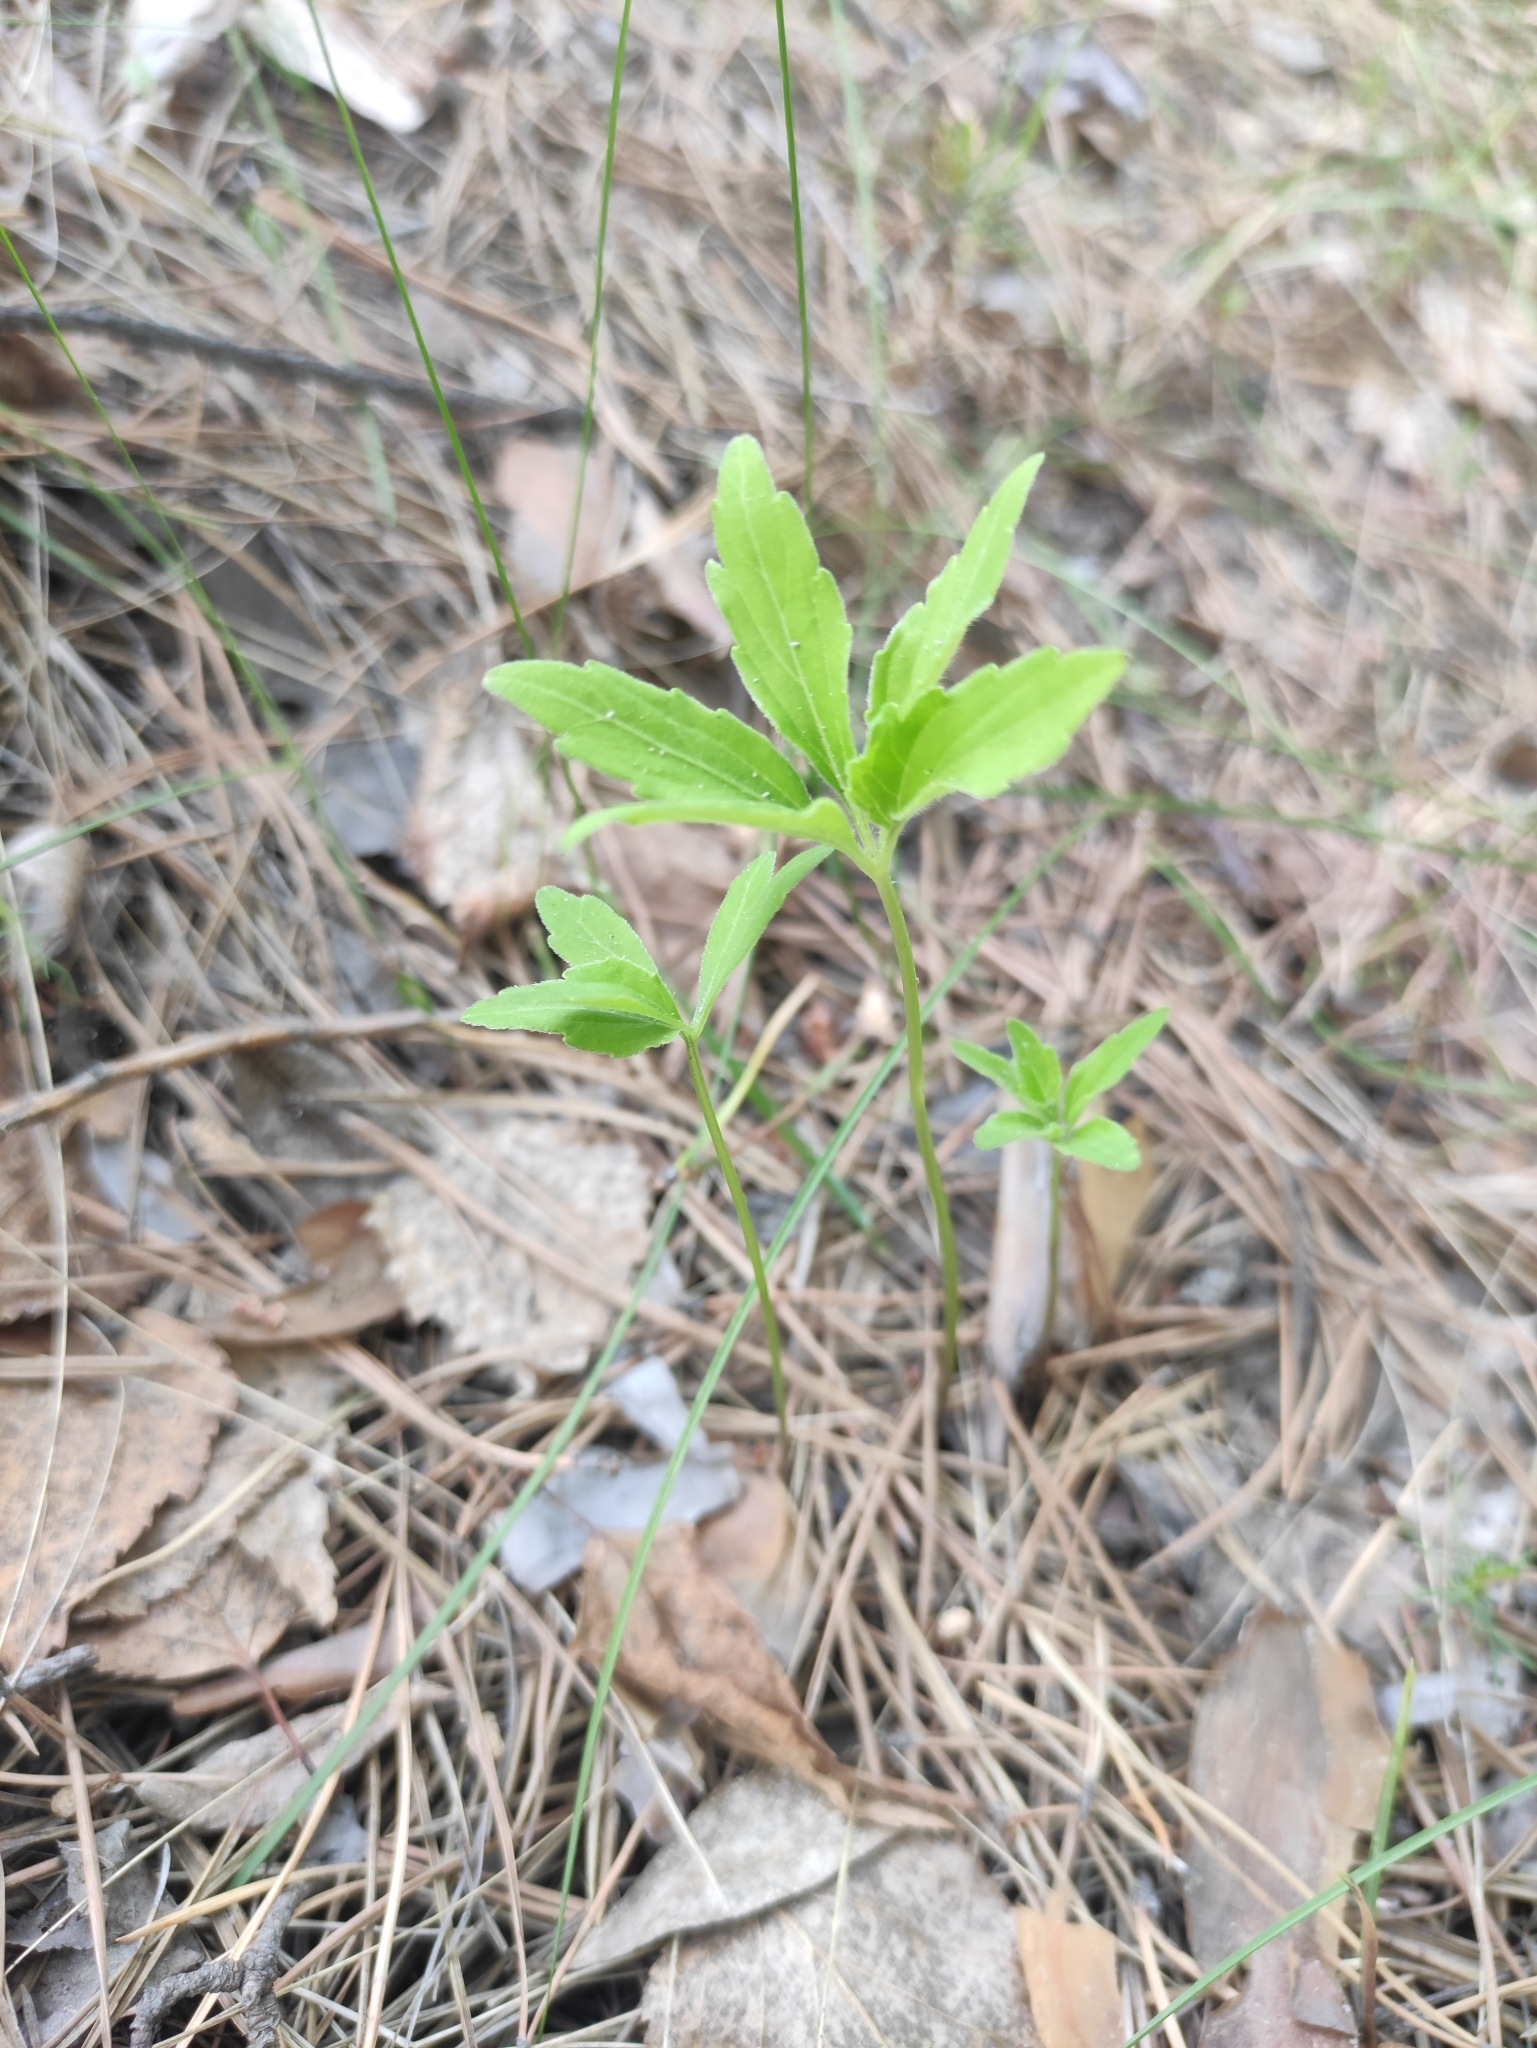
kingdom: Plantae
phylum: Tracheophyta
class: Magnoliopsida
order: Malpighiales
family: Violaceae
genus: Viola
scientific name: Viola dactyloides
